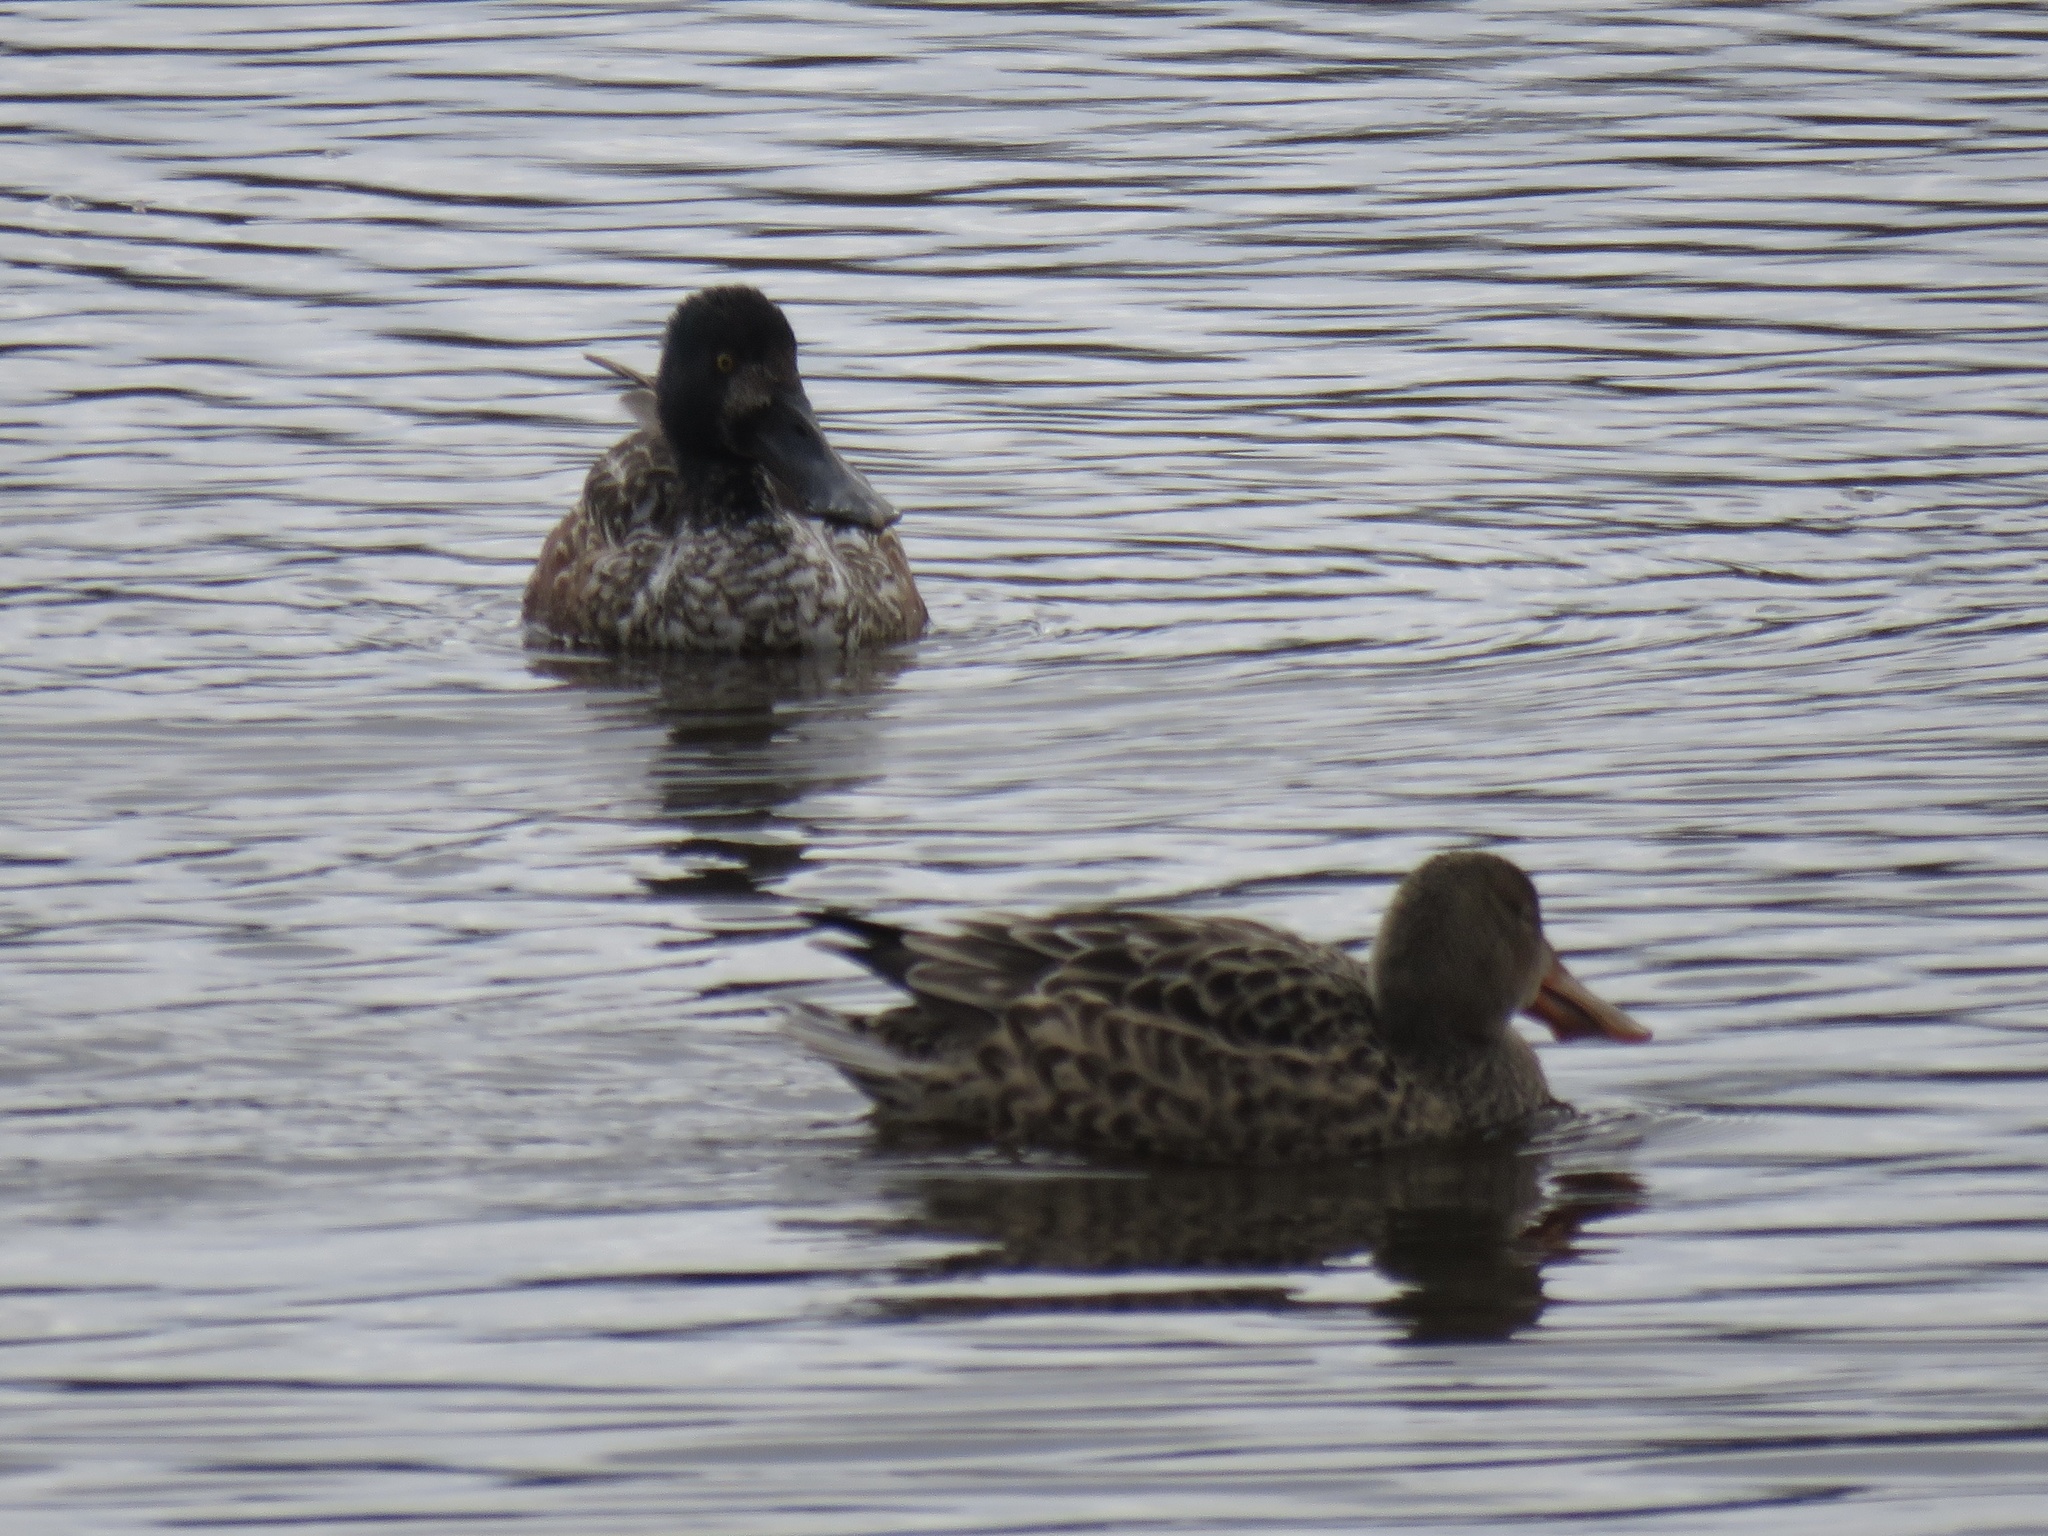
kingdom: Animalia
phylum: Chordata
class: Aves
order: Anseriformes
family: Anatidae
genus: Spatula
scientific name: Spatula clypeata
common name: Northern shoveler
